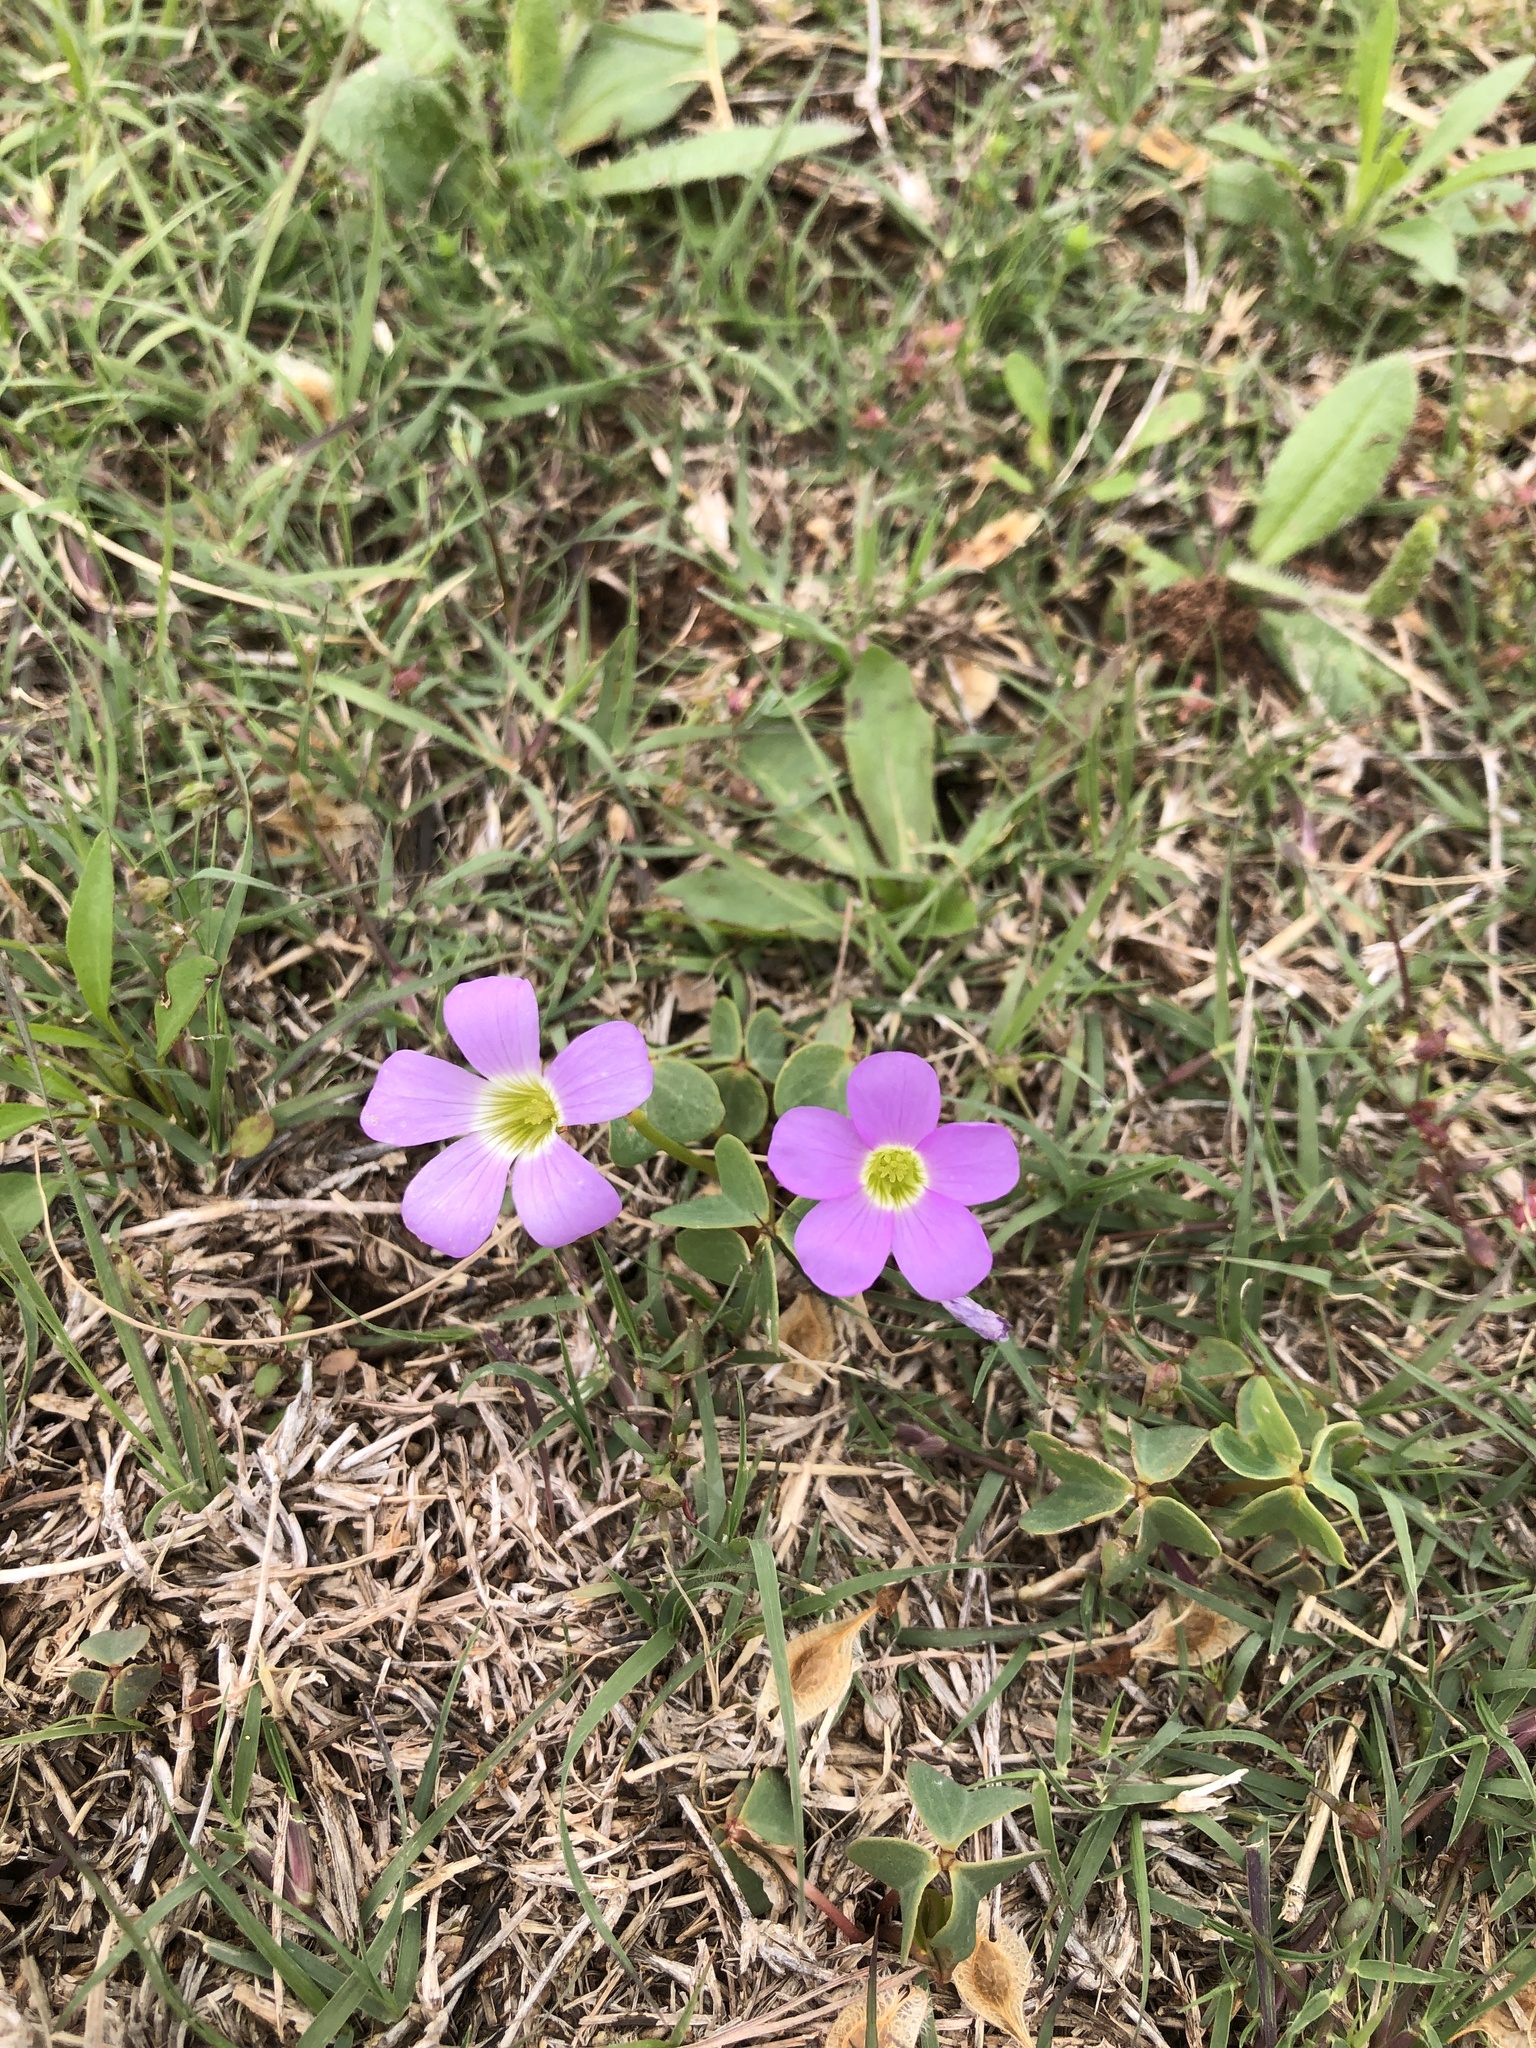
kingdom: Plantae
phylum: Tracheophyta
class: Magnoliopsida
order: Oxalidales
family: Oxalidaceae
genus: Oxalis
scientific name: Oxalis violacea
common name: Violet wood-sorrel
